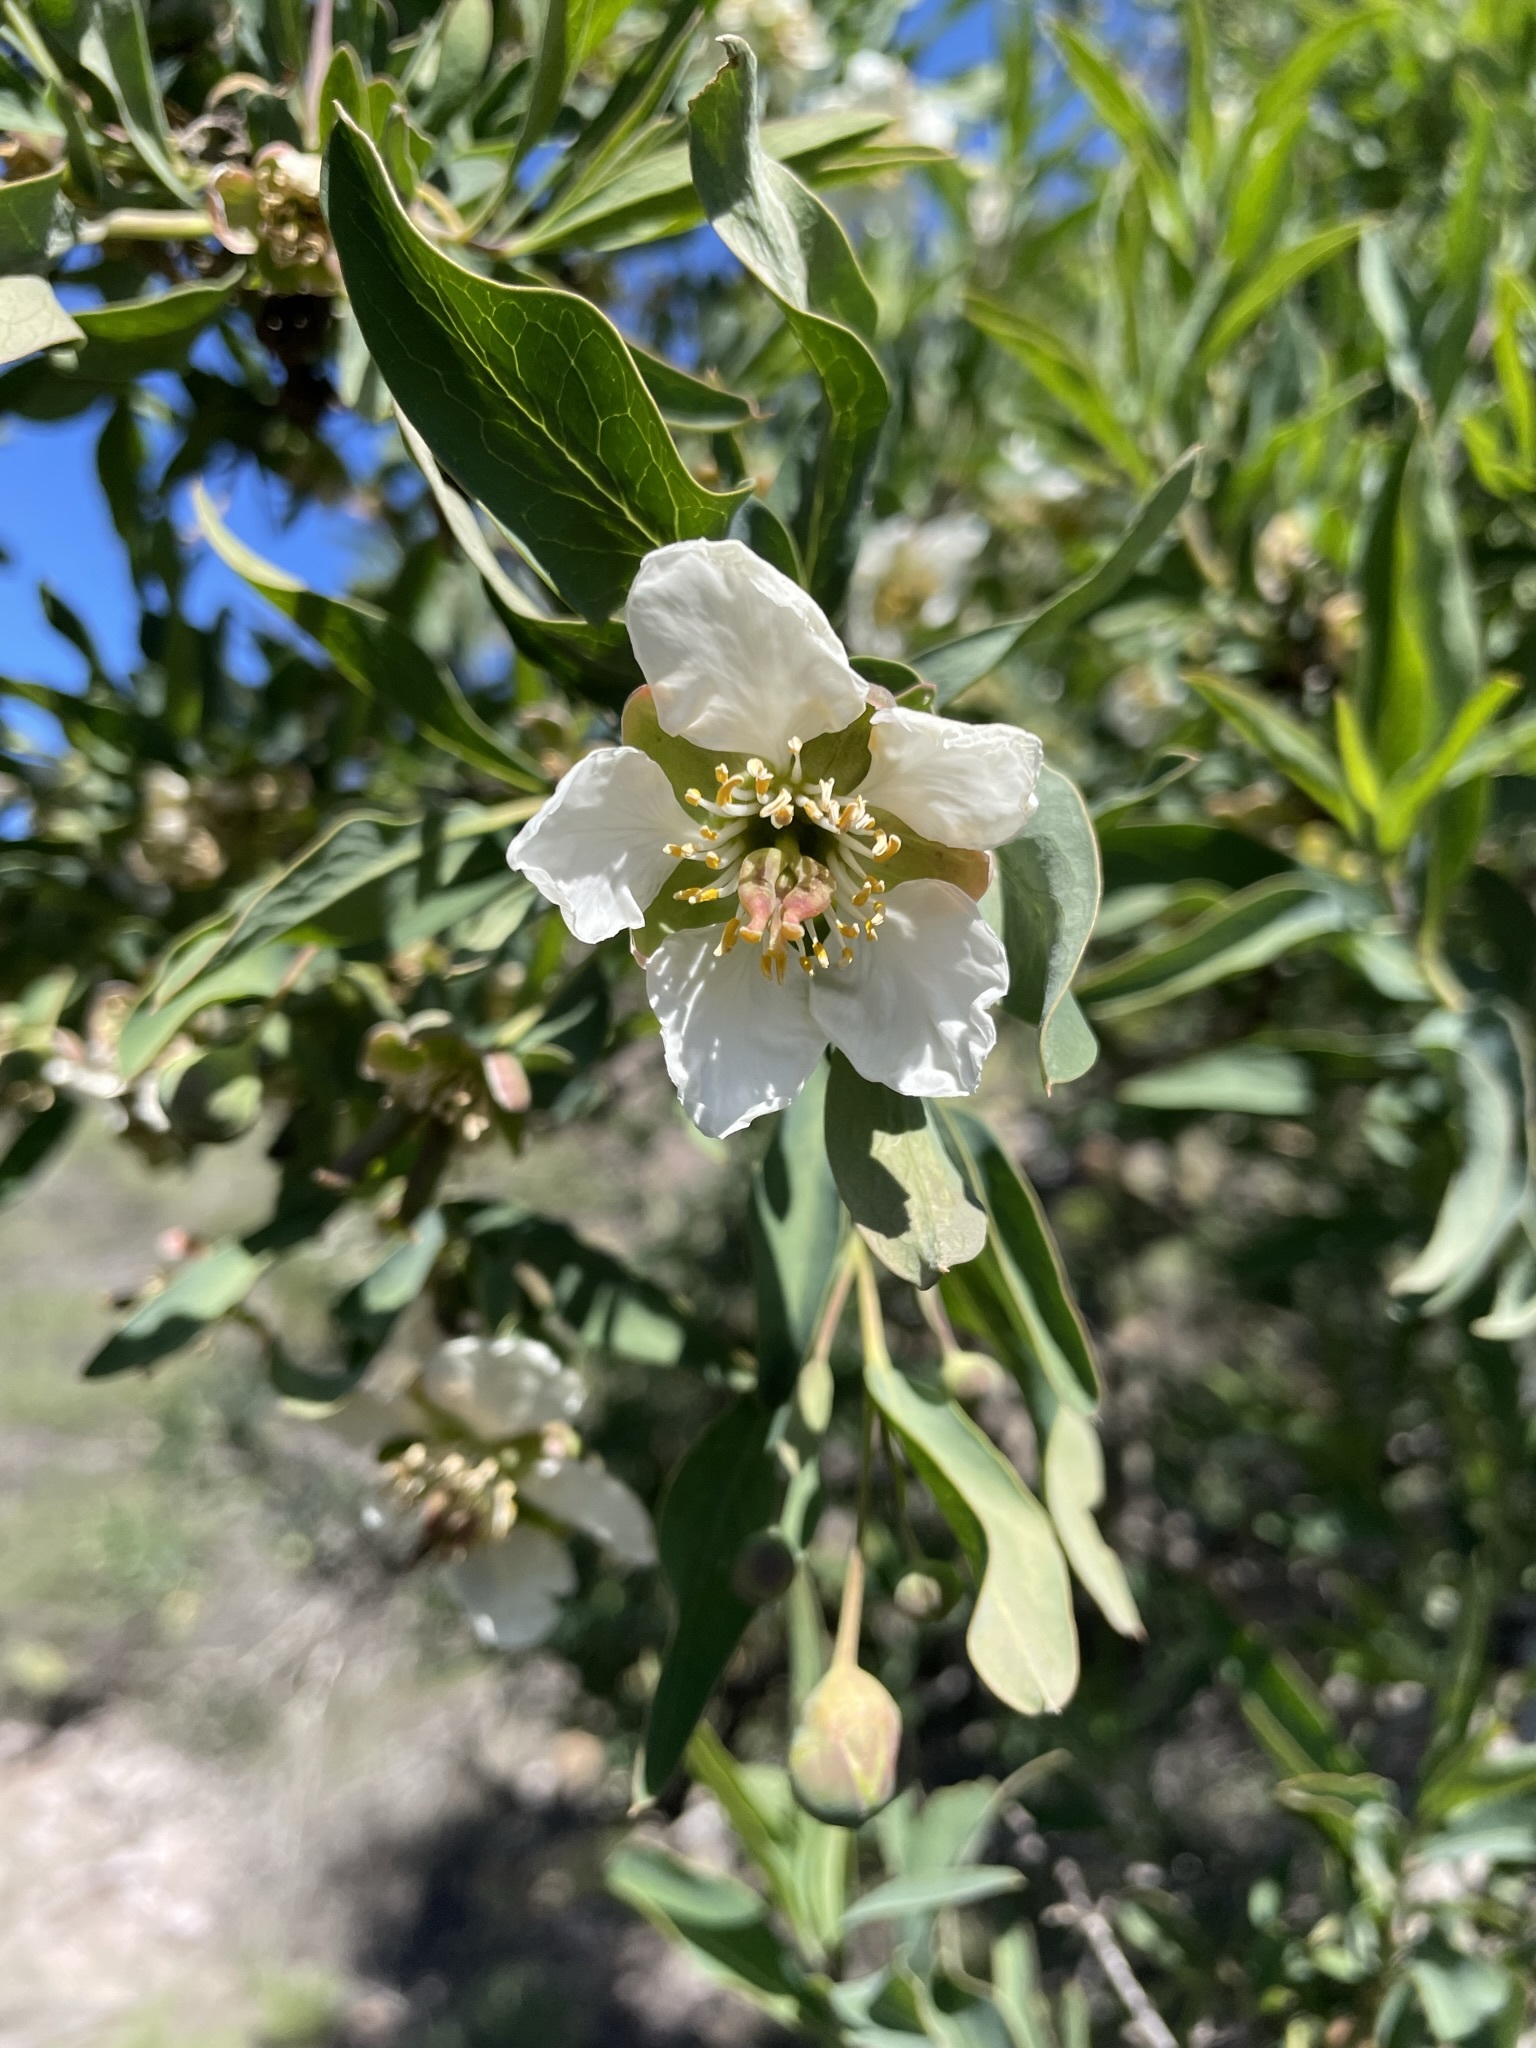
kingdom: Plantae
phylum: Tracheophyta
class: Magnoliopsida
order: Crossosomatales
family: Crossosomataceae
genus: Crossosoma
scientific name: Crossosoma californicum
